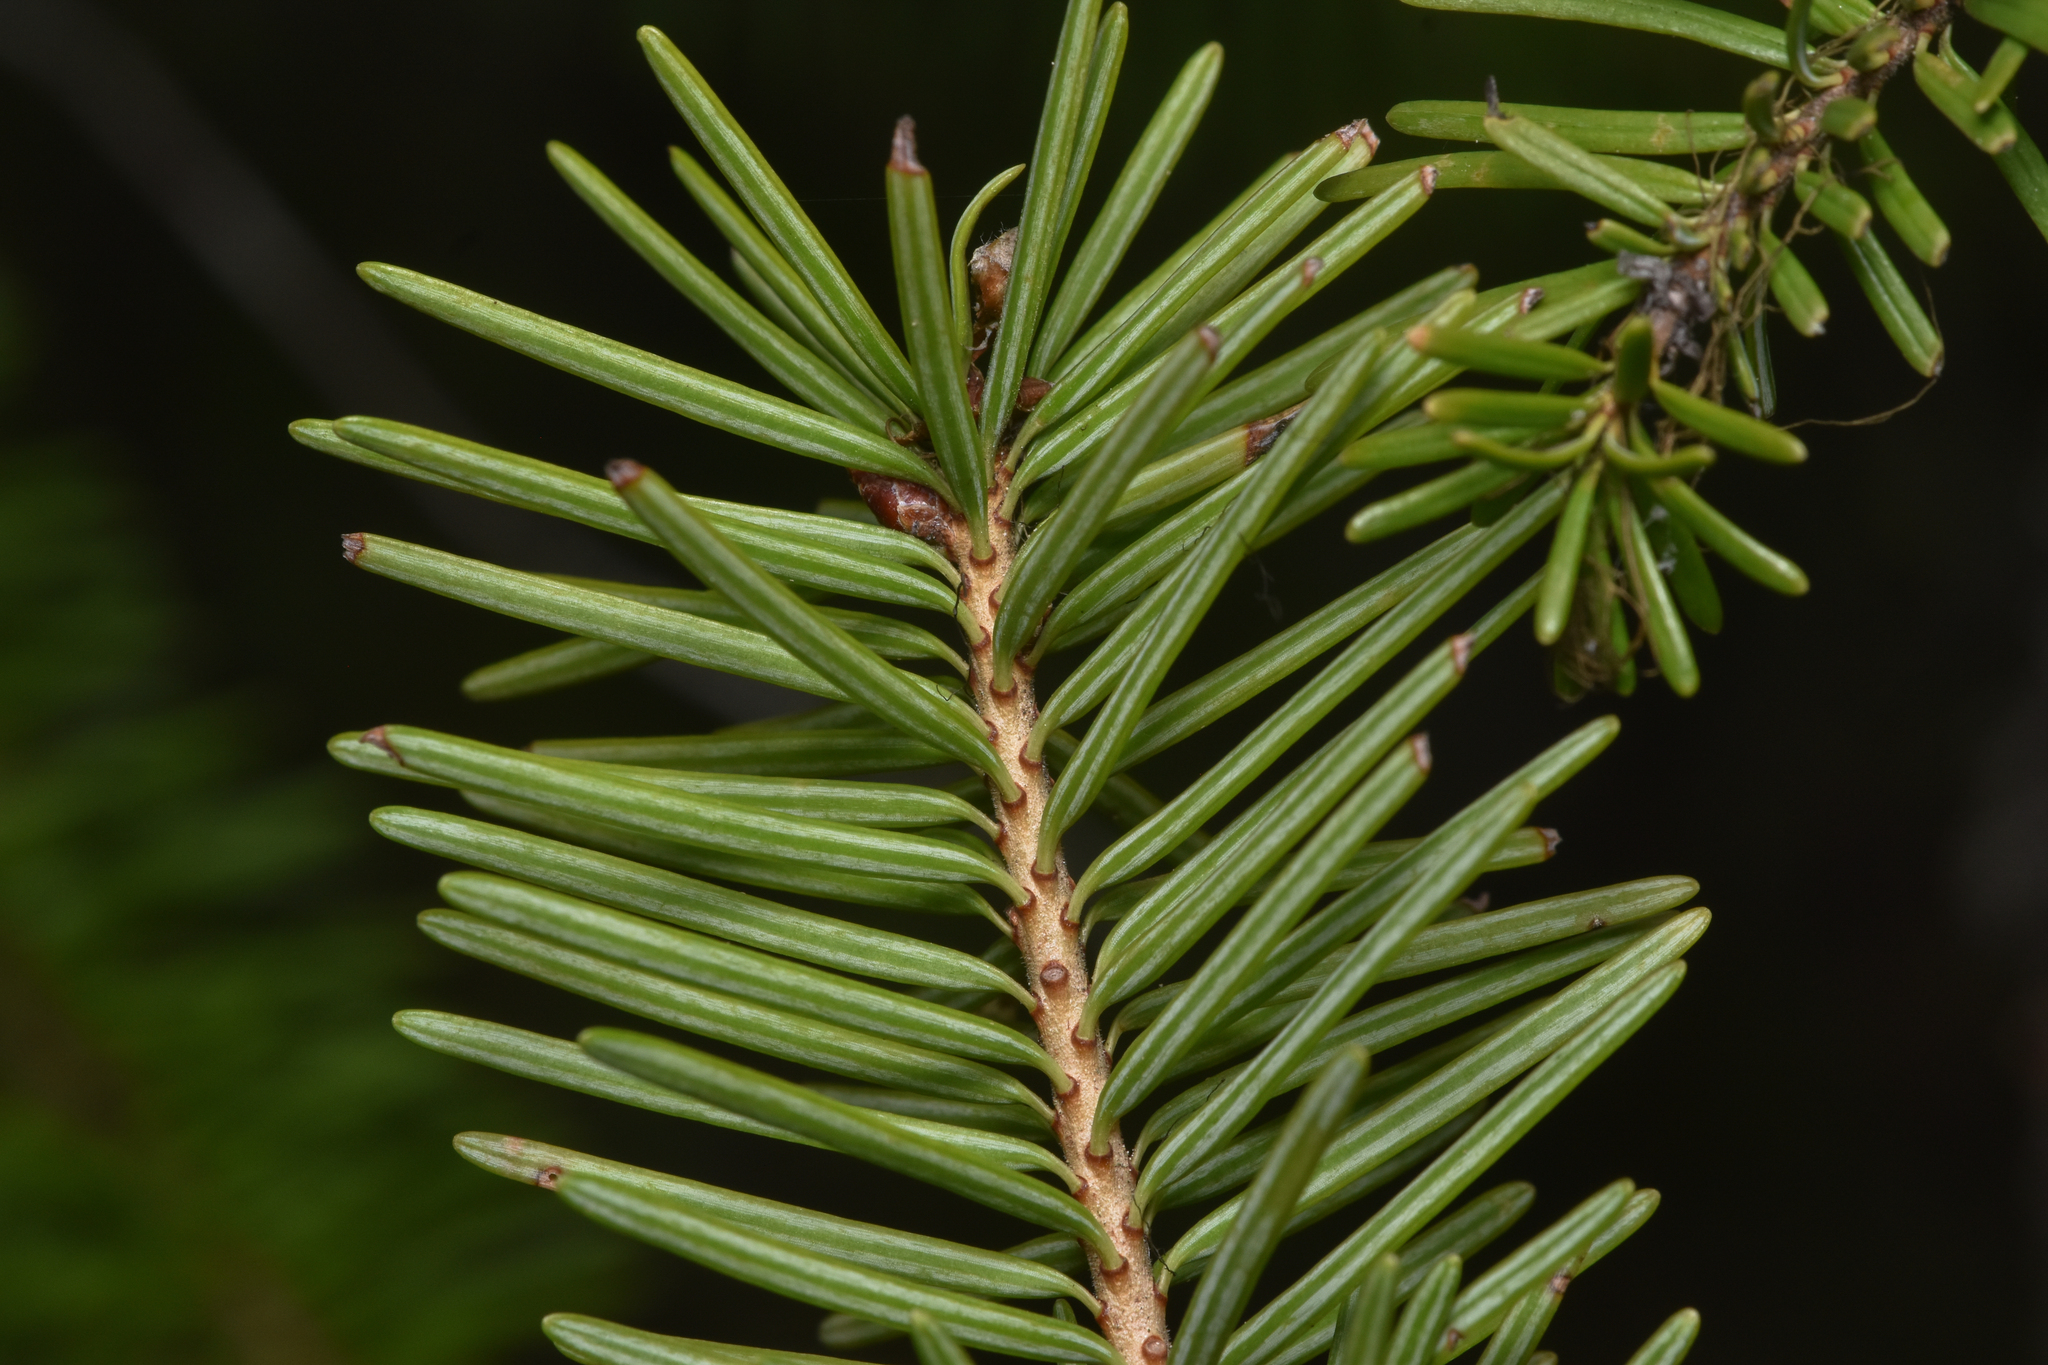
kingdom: Plantae
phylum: Tracheophyta
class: Pinopsida
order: Pinales
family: Pinaceae
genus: Pseudotsuga
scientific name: Pseudotsuga menziesii
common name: Douglas fir
